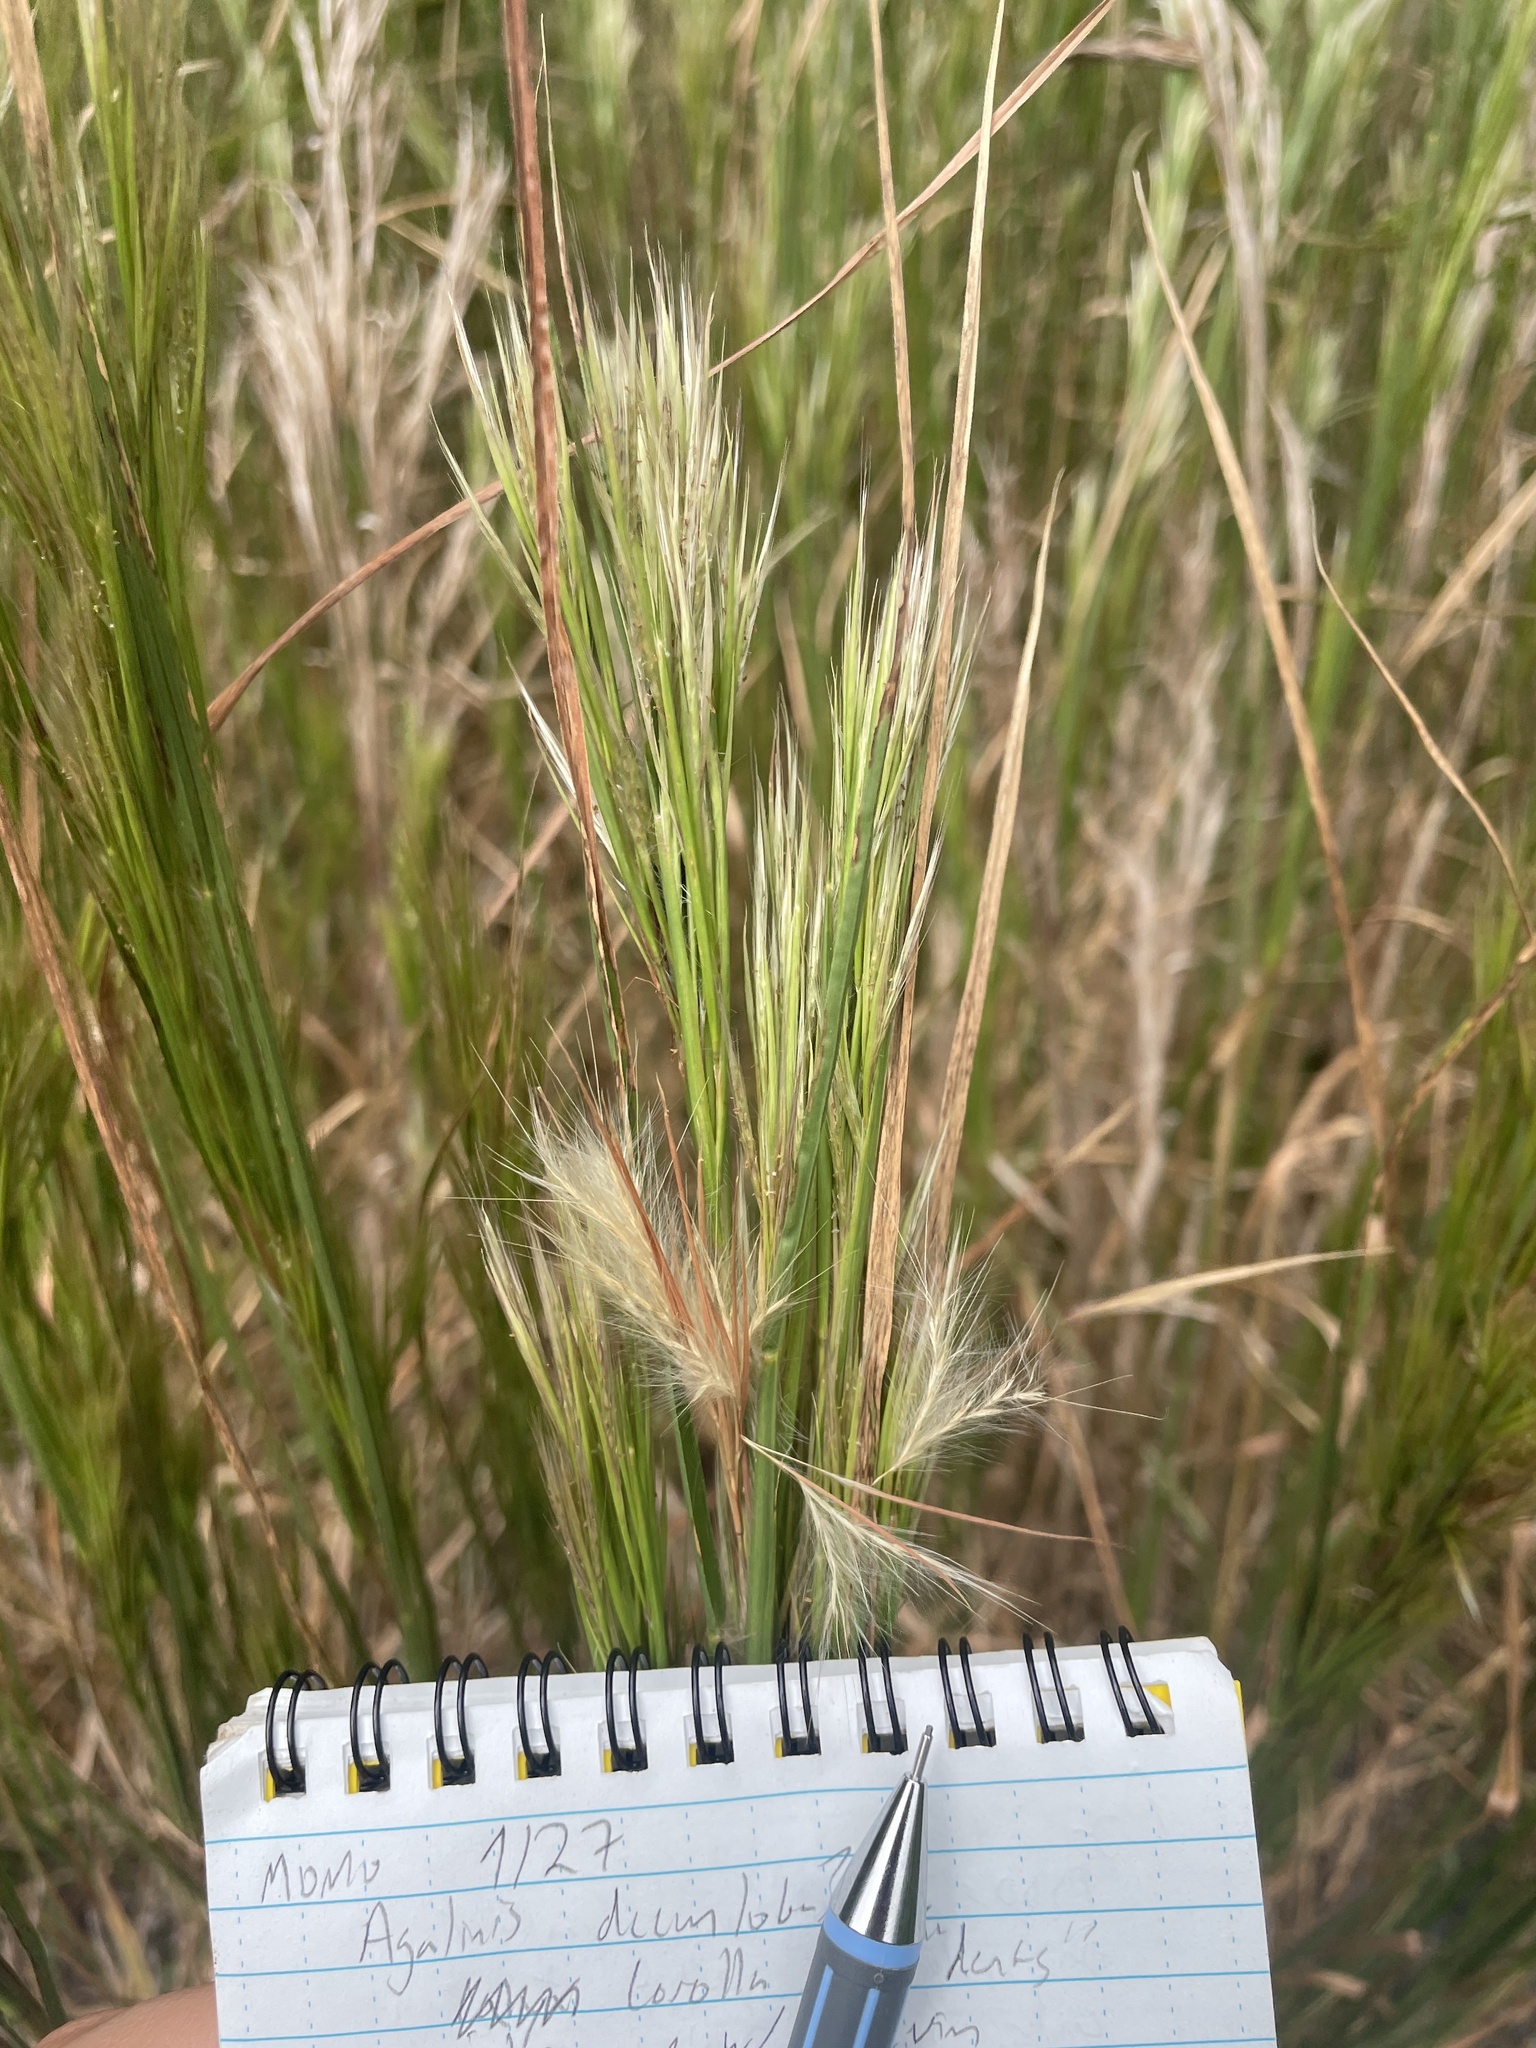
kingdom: Plantae
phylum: Tracheophyta
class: Liliopsida
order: Poales
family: Poaceae
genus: Andropogon
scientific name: Andropogon virginicus
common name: Broomsedge bluestem
